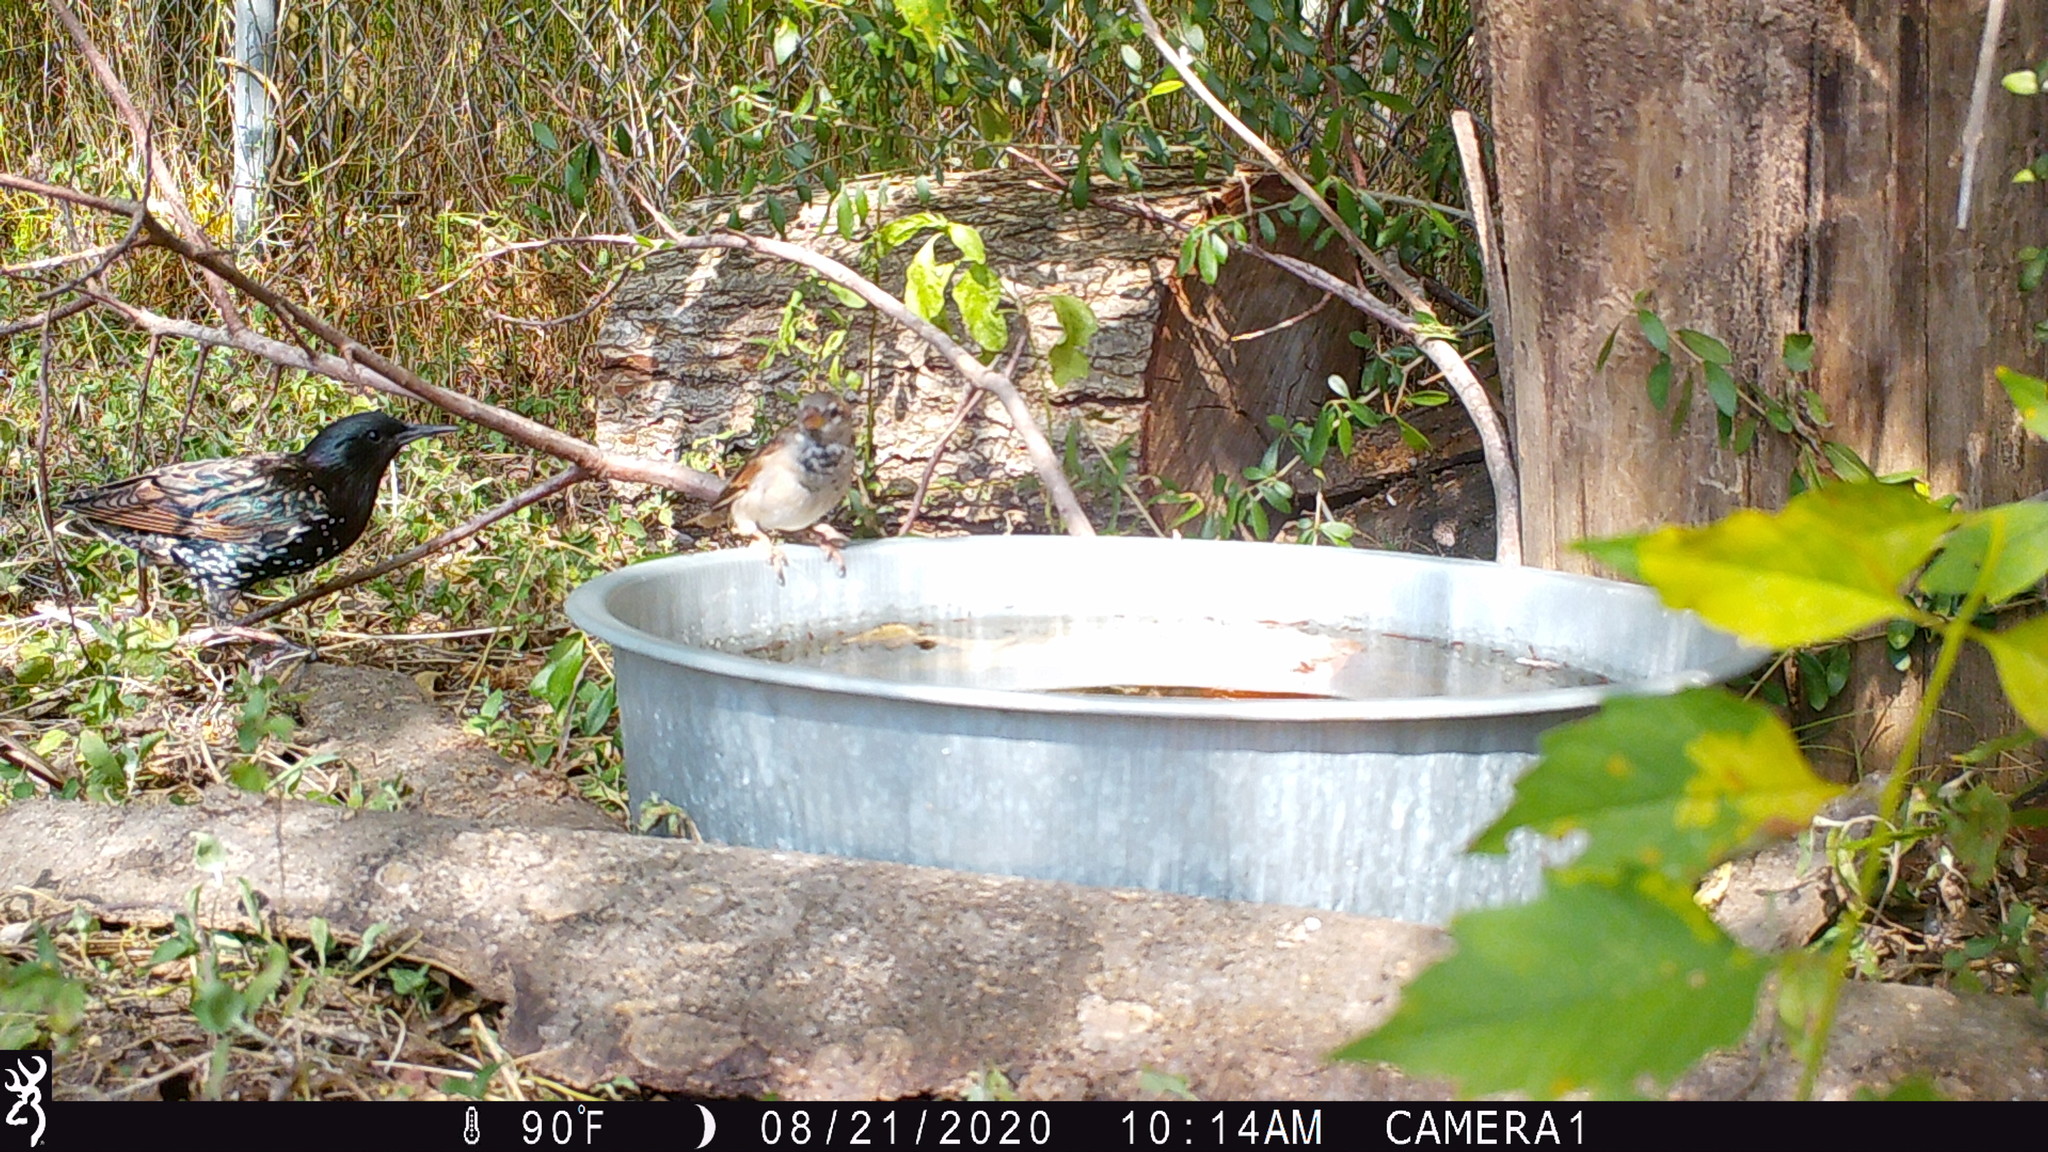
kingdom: Animalia
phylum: Chordata
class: Aves
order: Passeriformes
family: Sturnidae
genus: Sturnus
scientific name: Sturnus vulgaris
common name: Common starling
